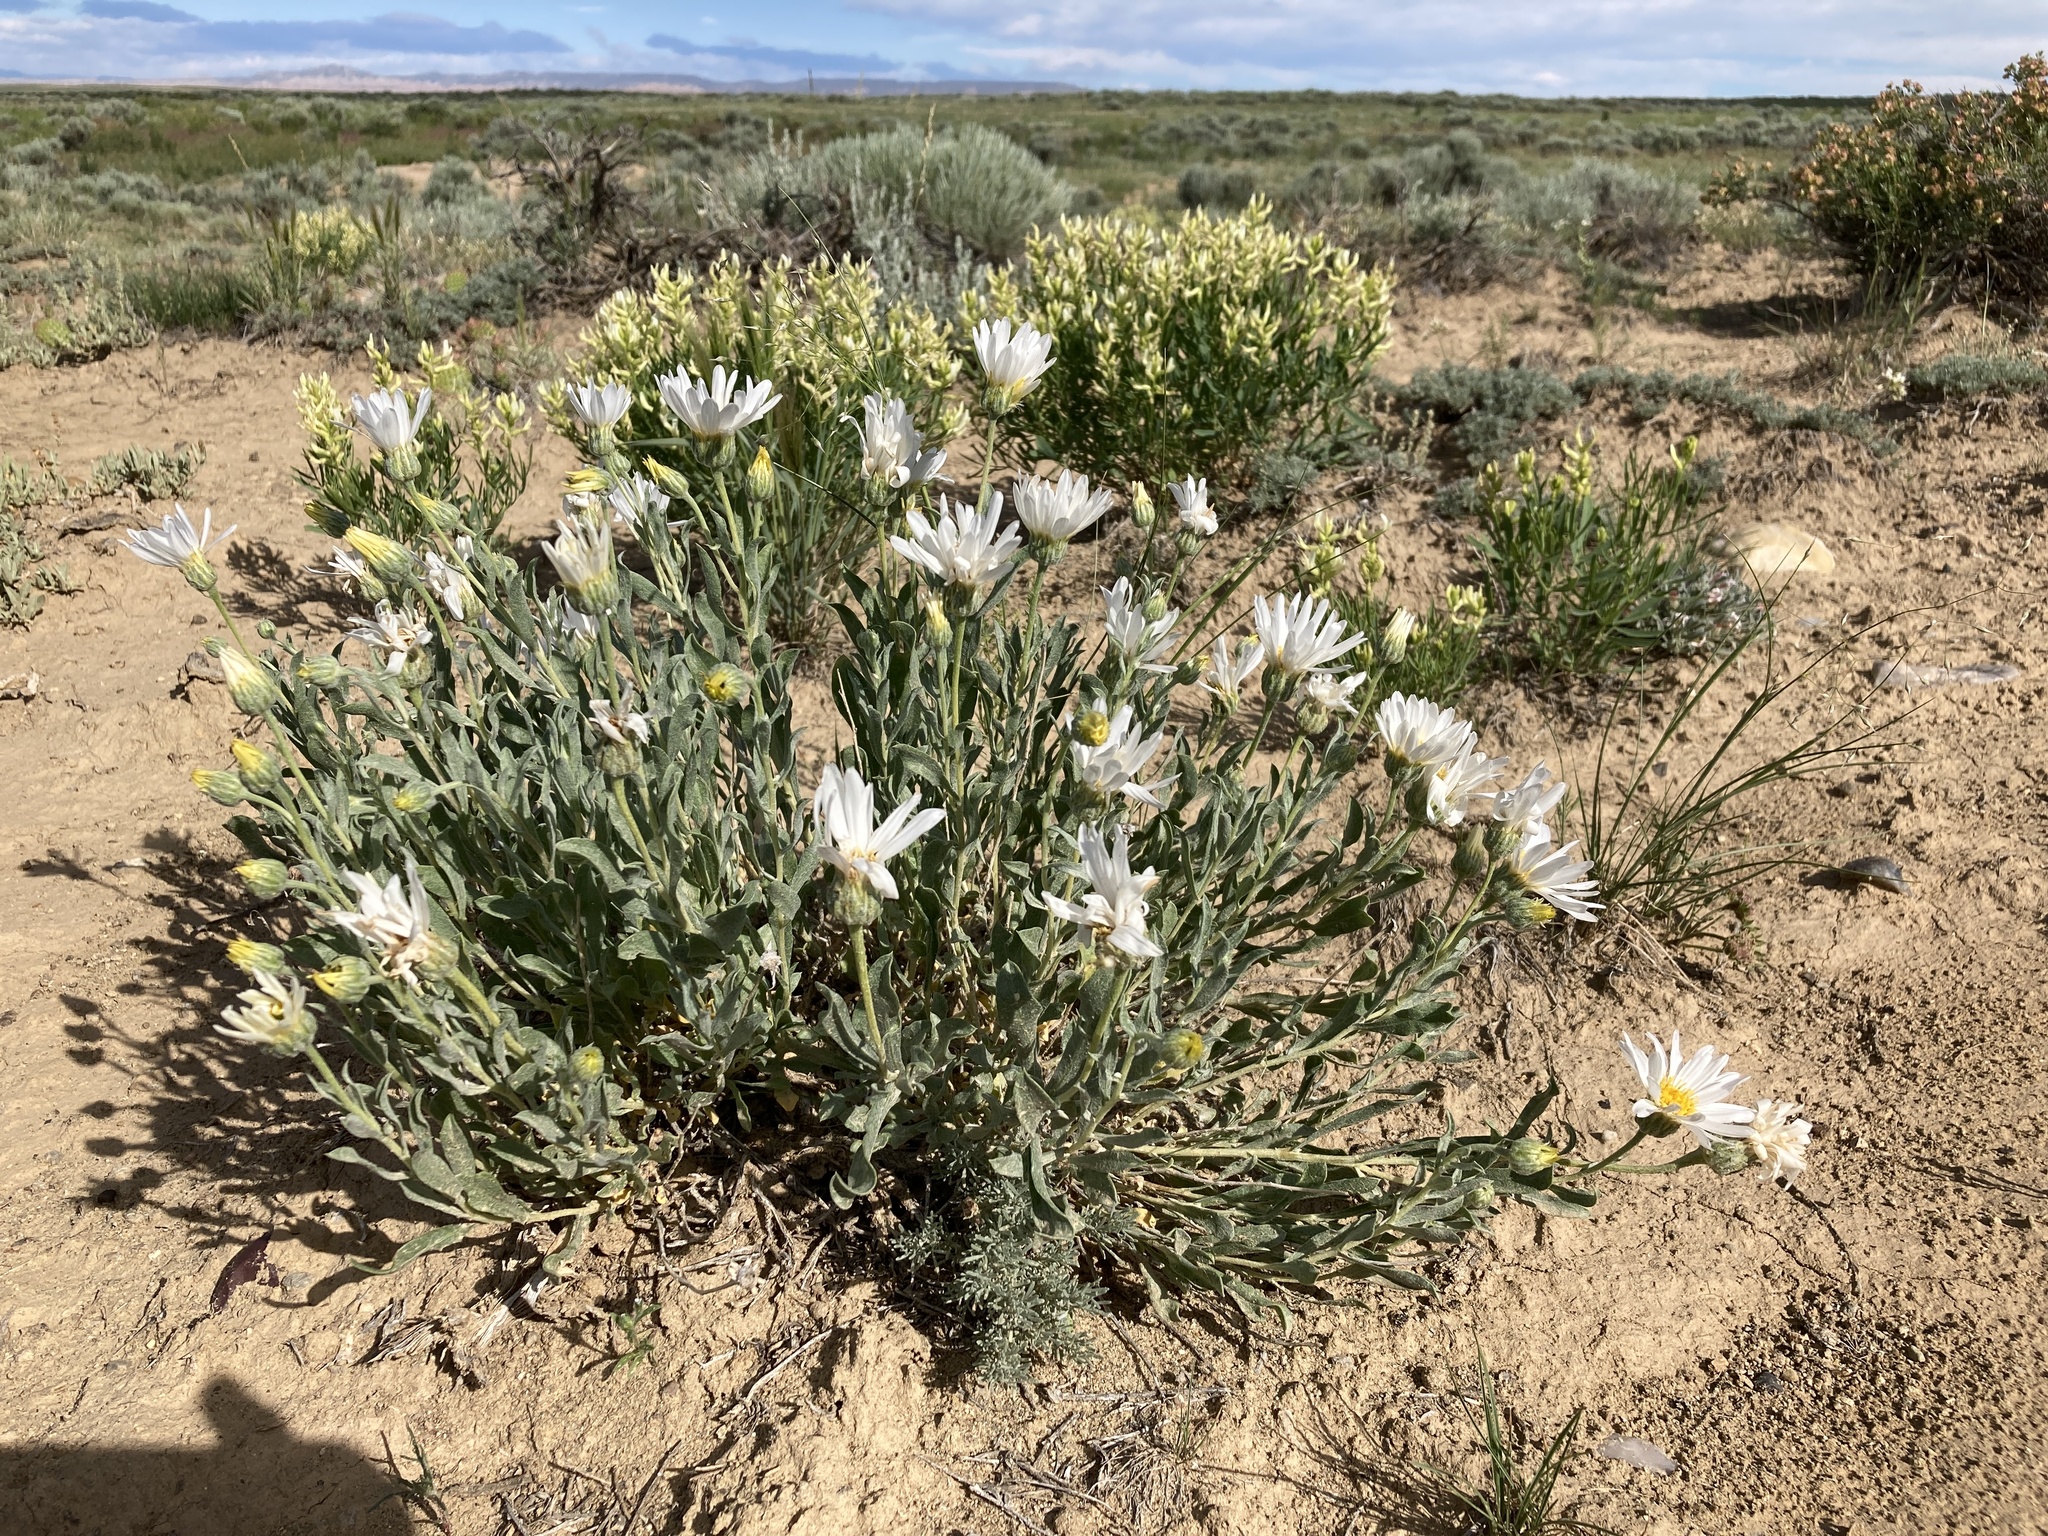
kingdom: Plantae
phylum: Tracheophyta
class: Magnoliopsida
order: Asterales
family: Asteraceae
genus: Xylorhiza
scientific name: Xylorhiza glabriuscula
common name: Smooth woody-aster
